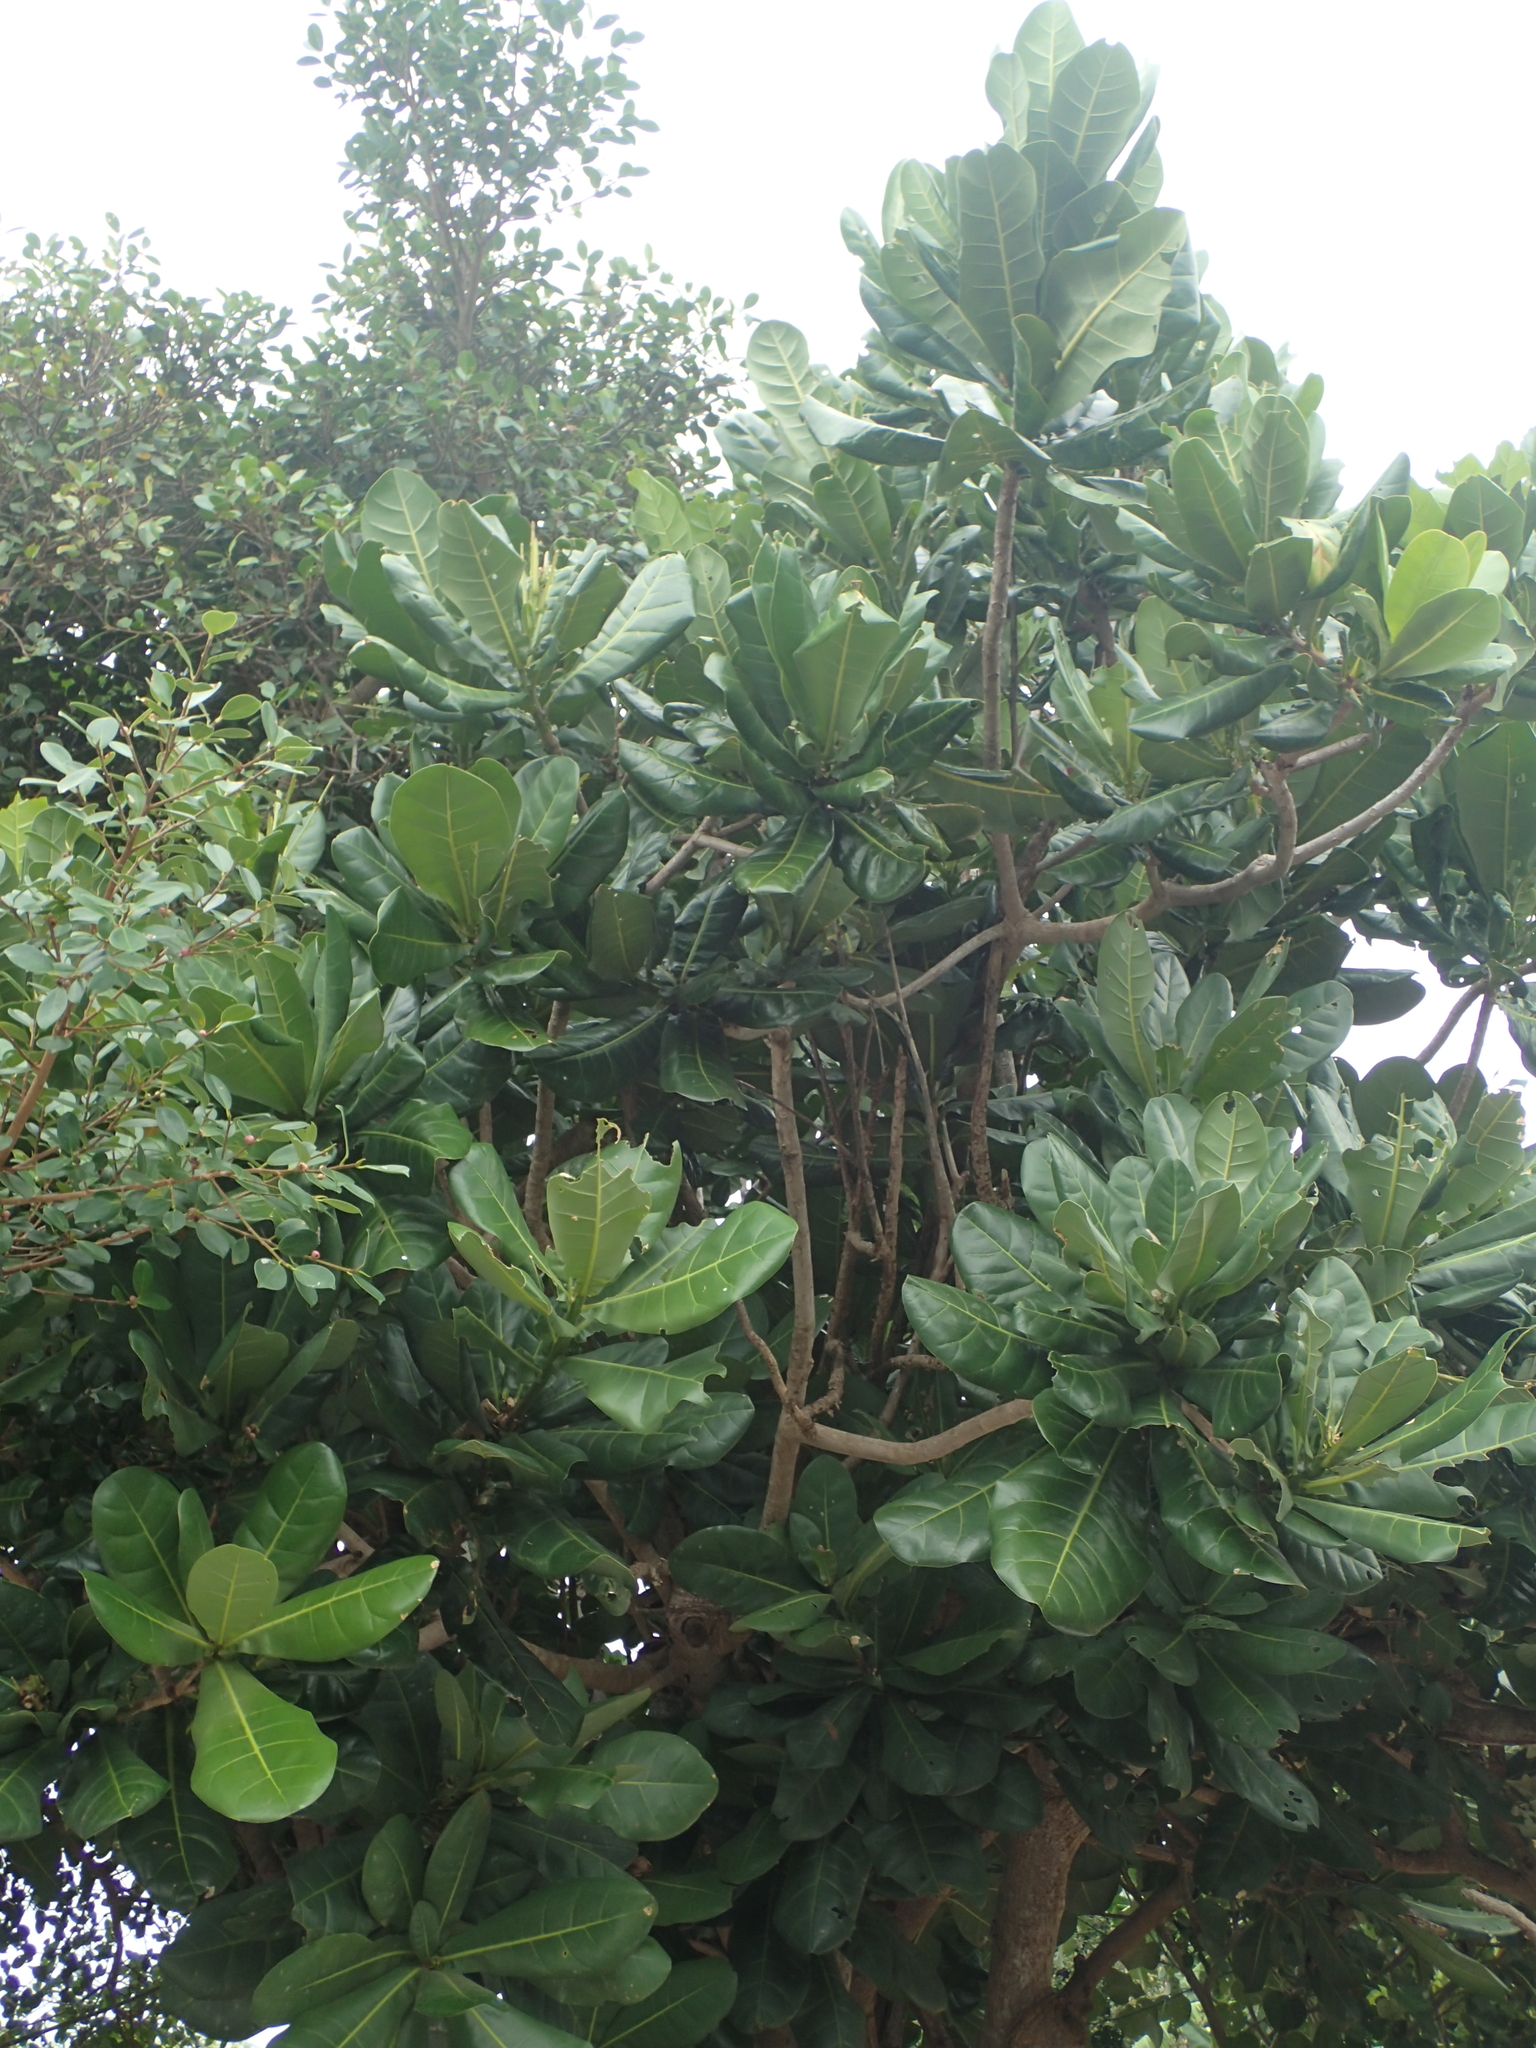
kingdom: Plantae
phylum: Tracheophyta
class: Magnoliopsida
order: Ericales
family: Lecythidaceae
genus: Barringtonia
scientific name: Barringtonia asiatica
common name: Mango-pine
